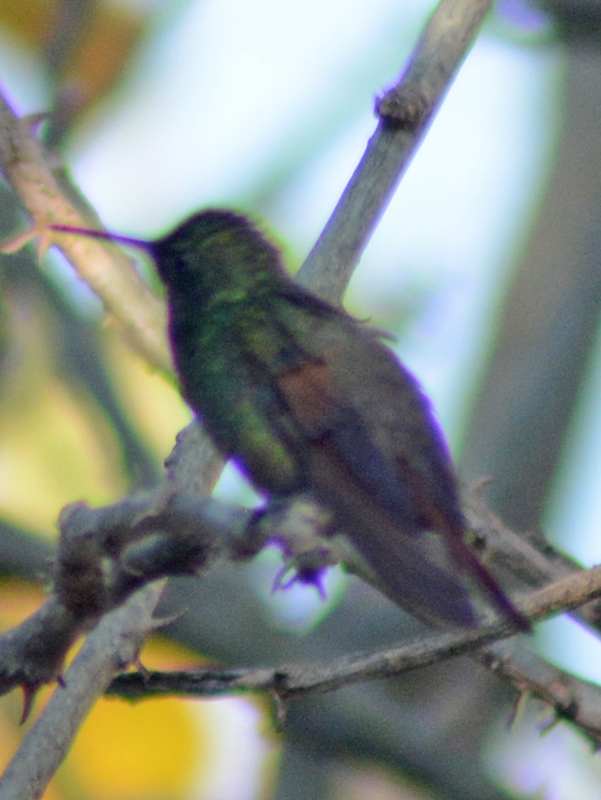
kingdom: Animalia
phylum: Chordata
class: Aves
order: Apodiformes
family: Trochilidae
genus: Saucerottia
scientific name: Saucerottia beryllina
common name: Berylline hummingbird
